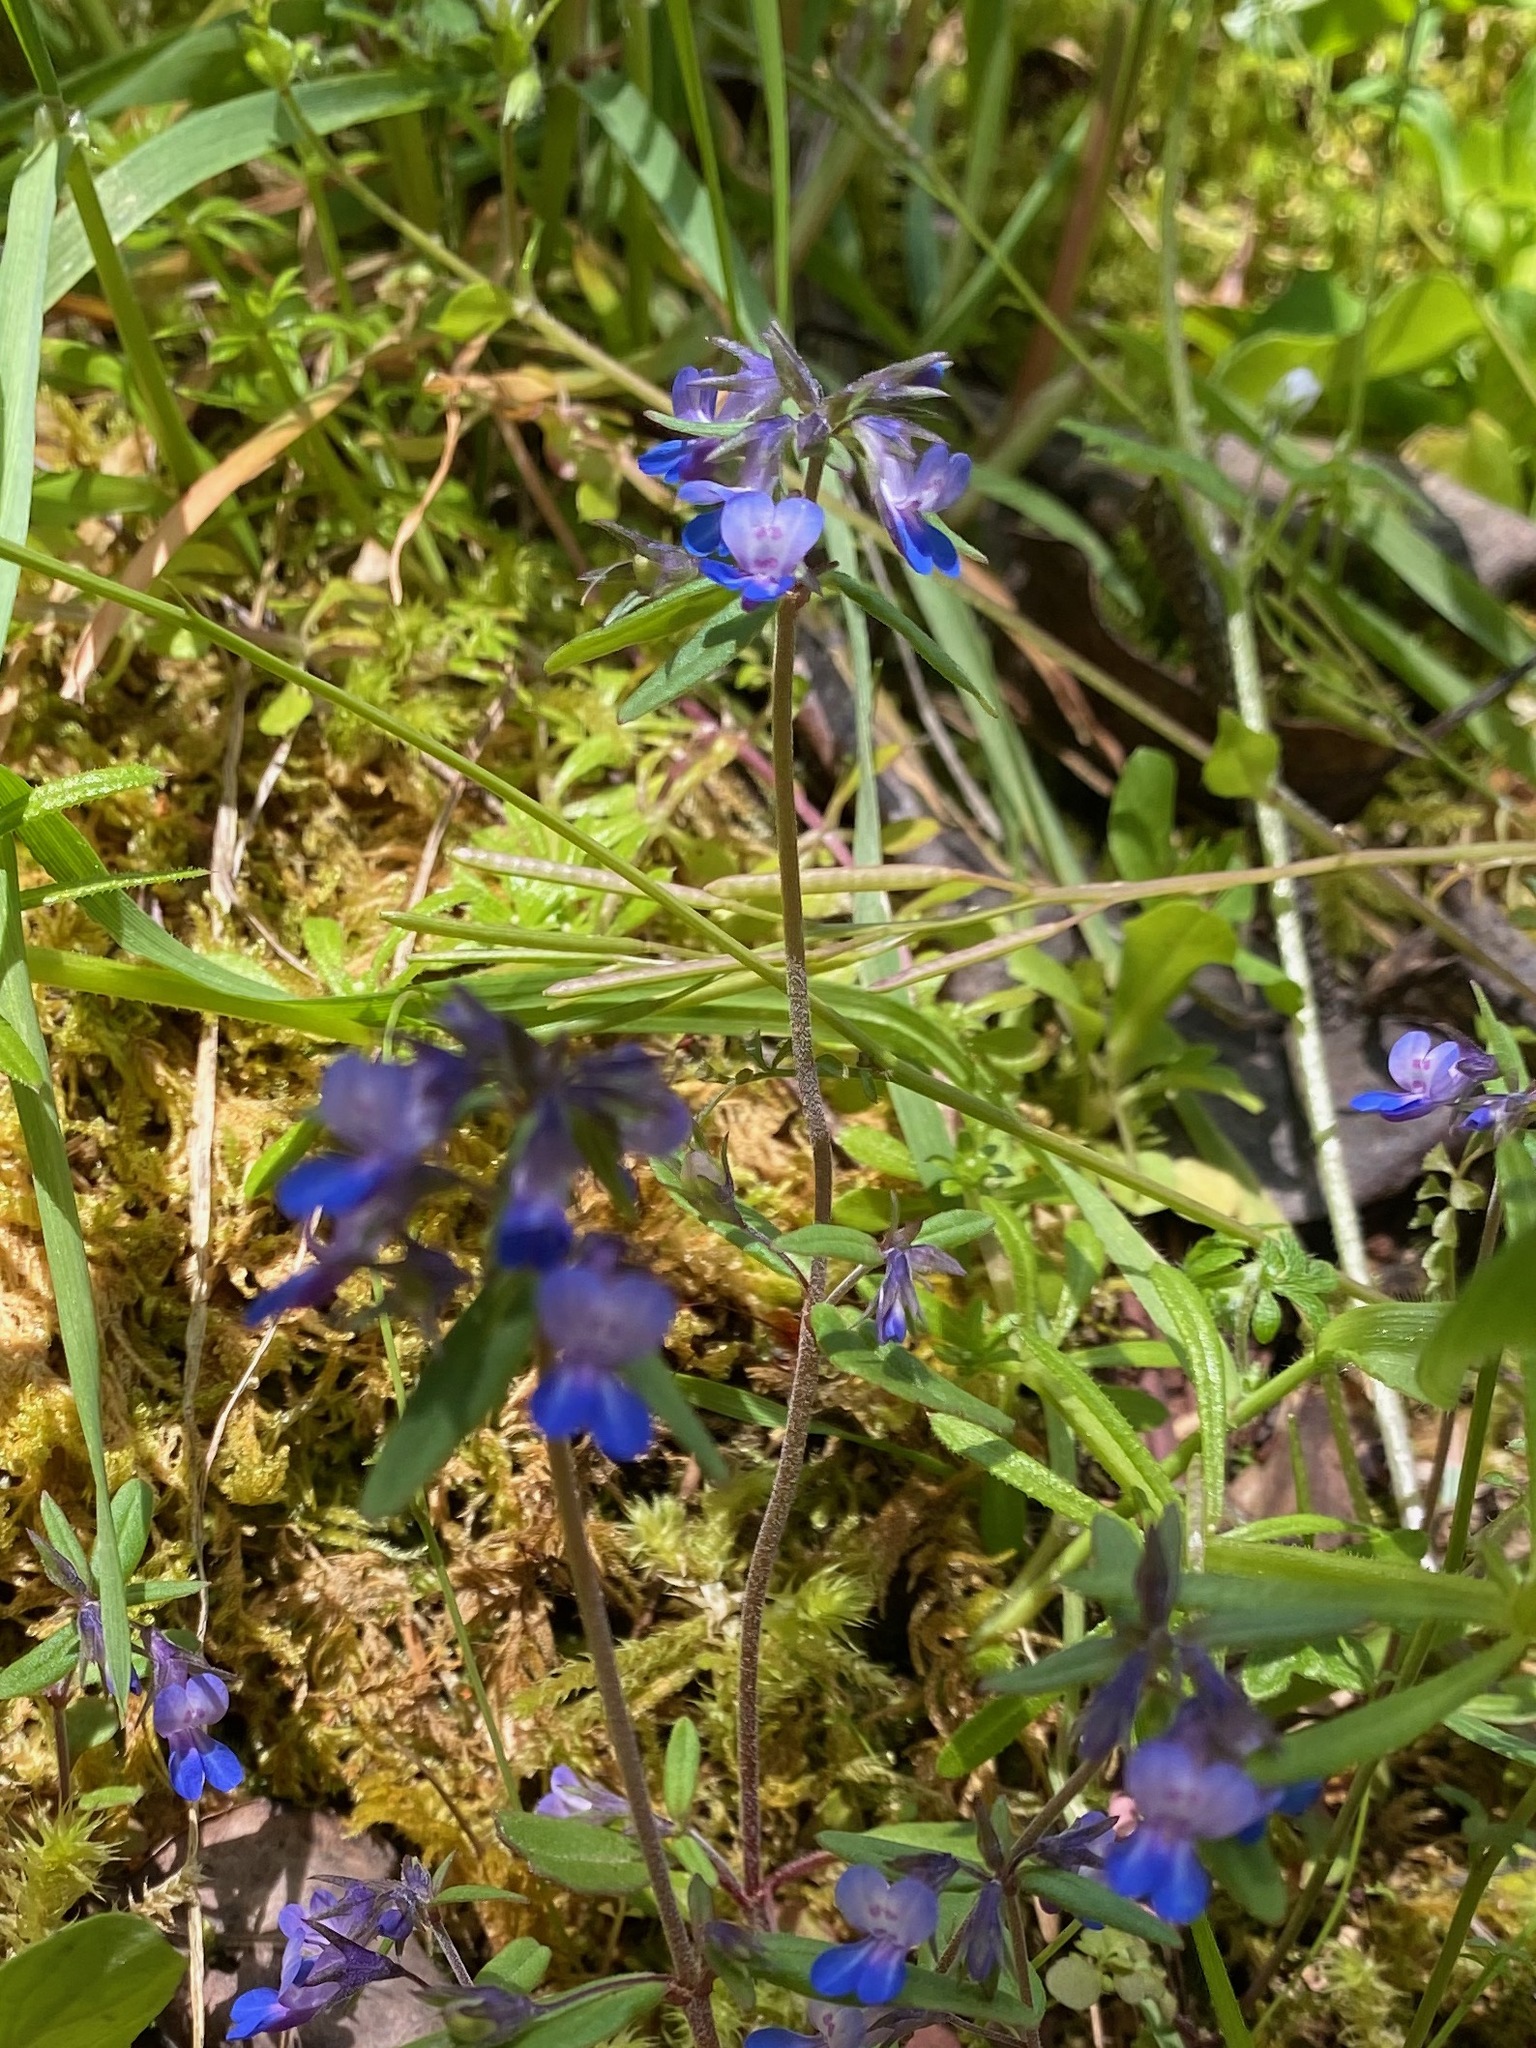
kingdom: Plantae
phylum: Tracheophyta
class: Magnoliopsida
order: Lamiales
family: Plantaginaceae
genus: Collinsia
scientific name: Collinsia grandiflora
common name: Large-flower blue-eyed-mary
